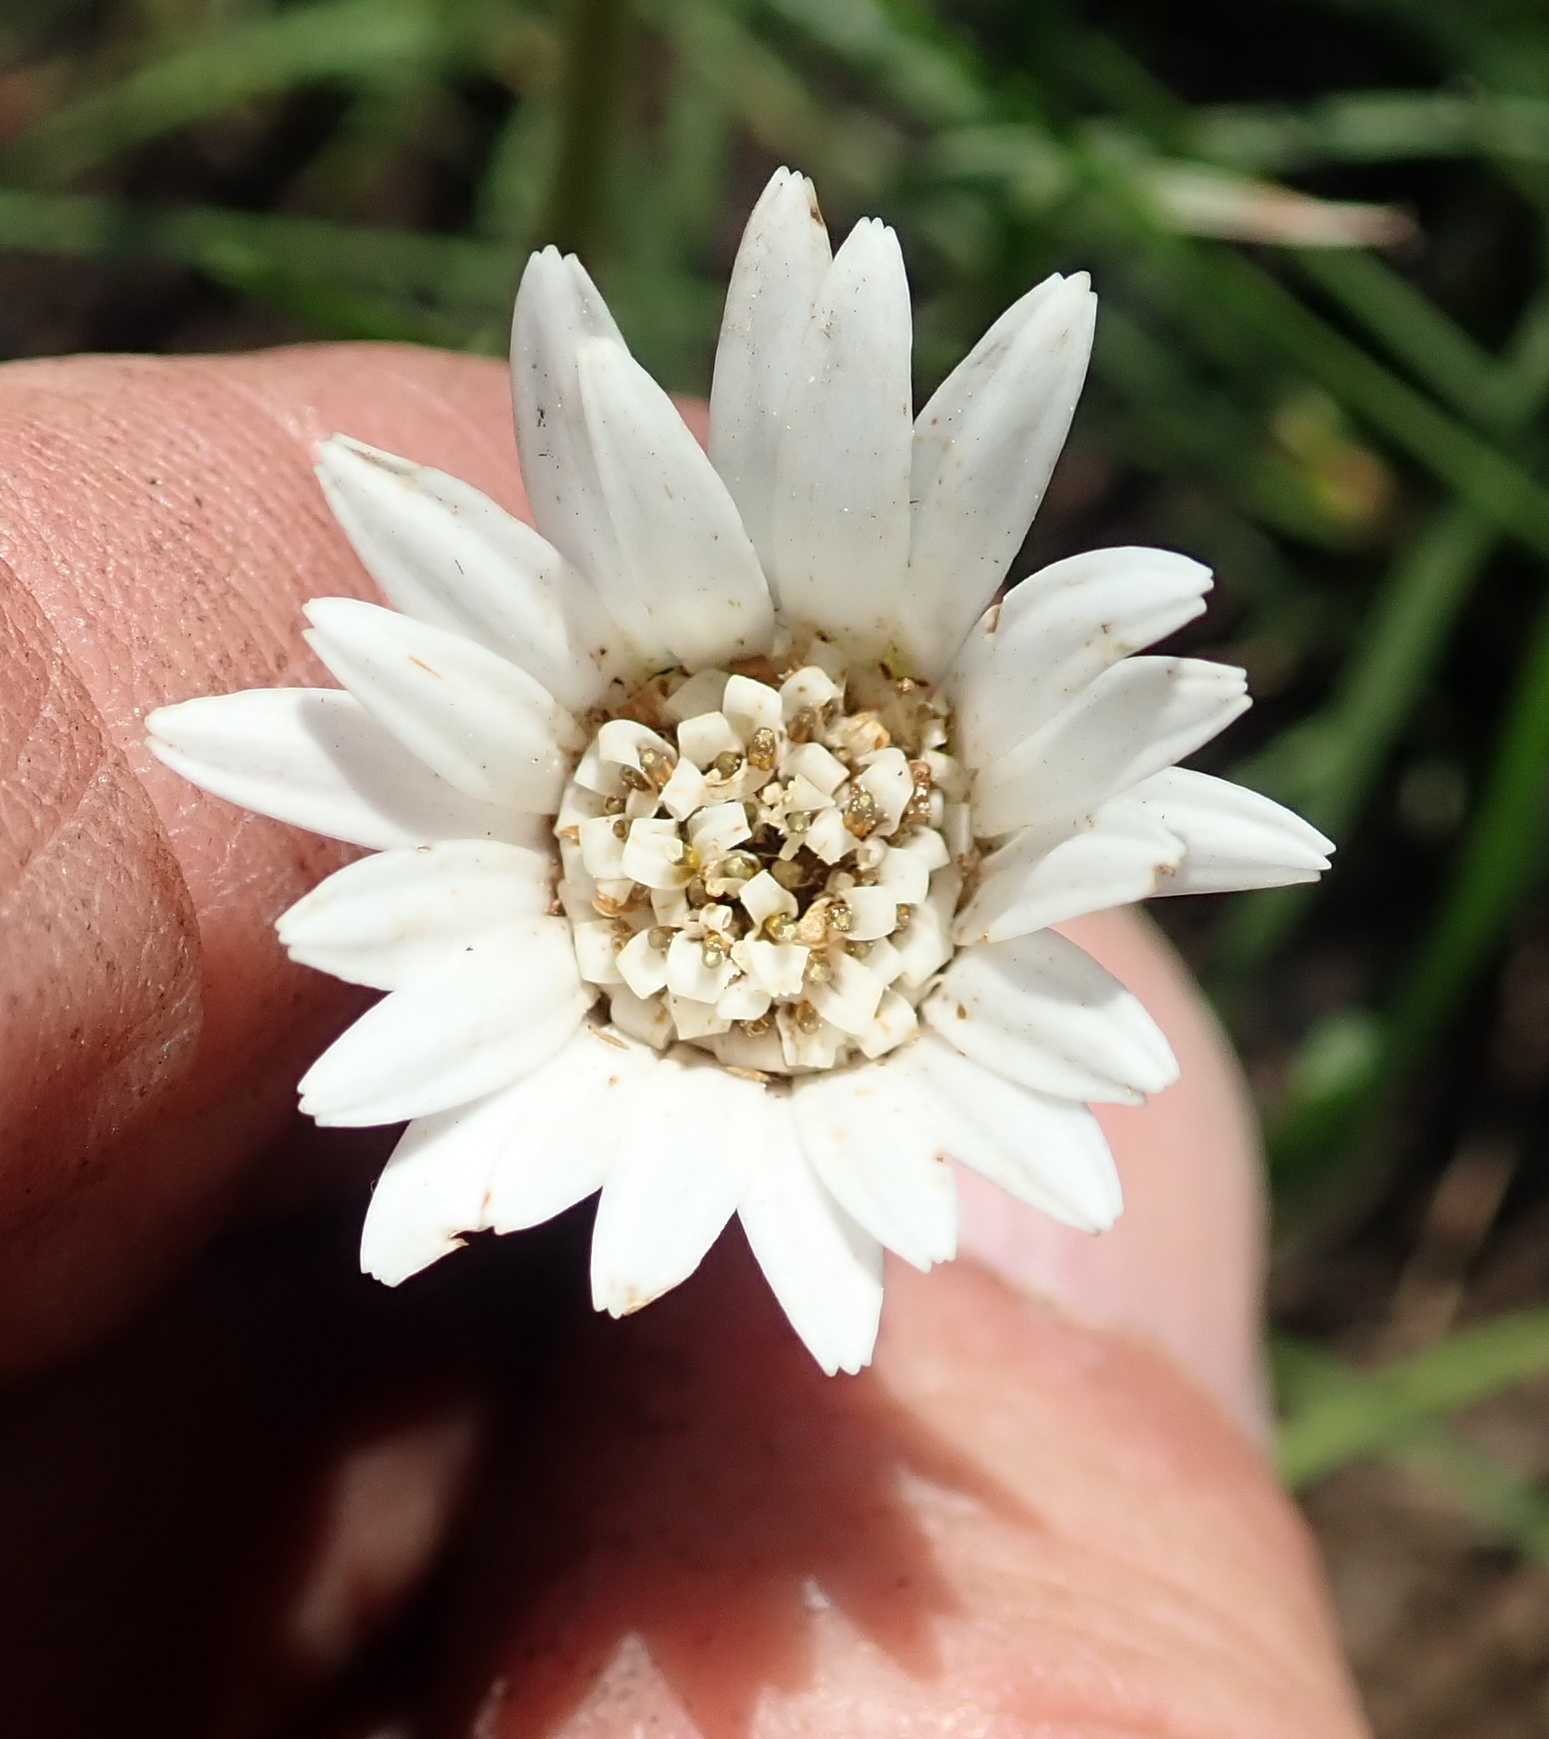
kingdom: Plantae
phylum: Tracheophyta
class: Magnoliopsida
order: Asterales
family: Asteraceae
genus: Gerbera
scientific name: Gerbera ambigua
